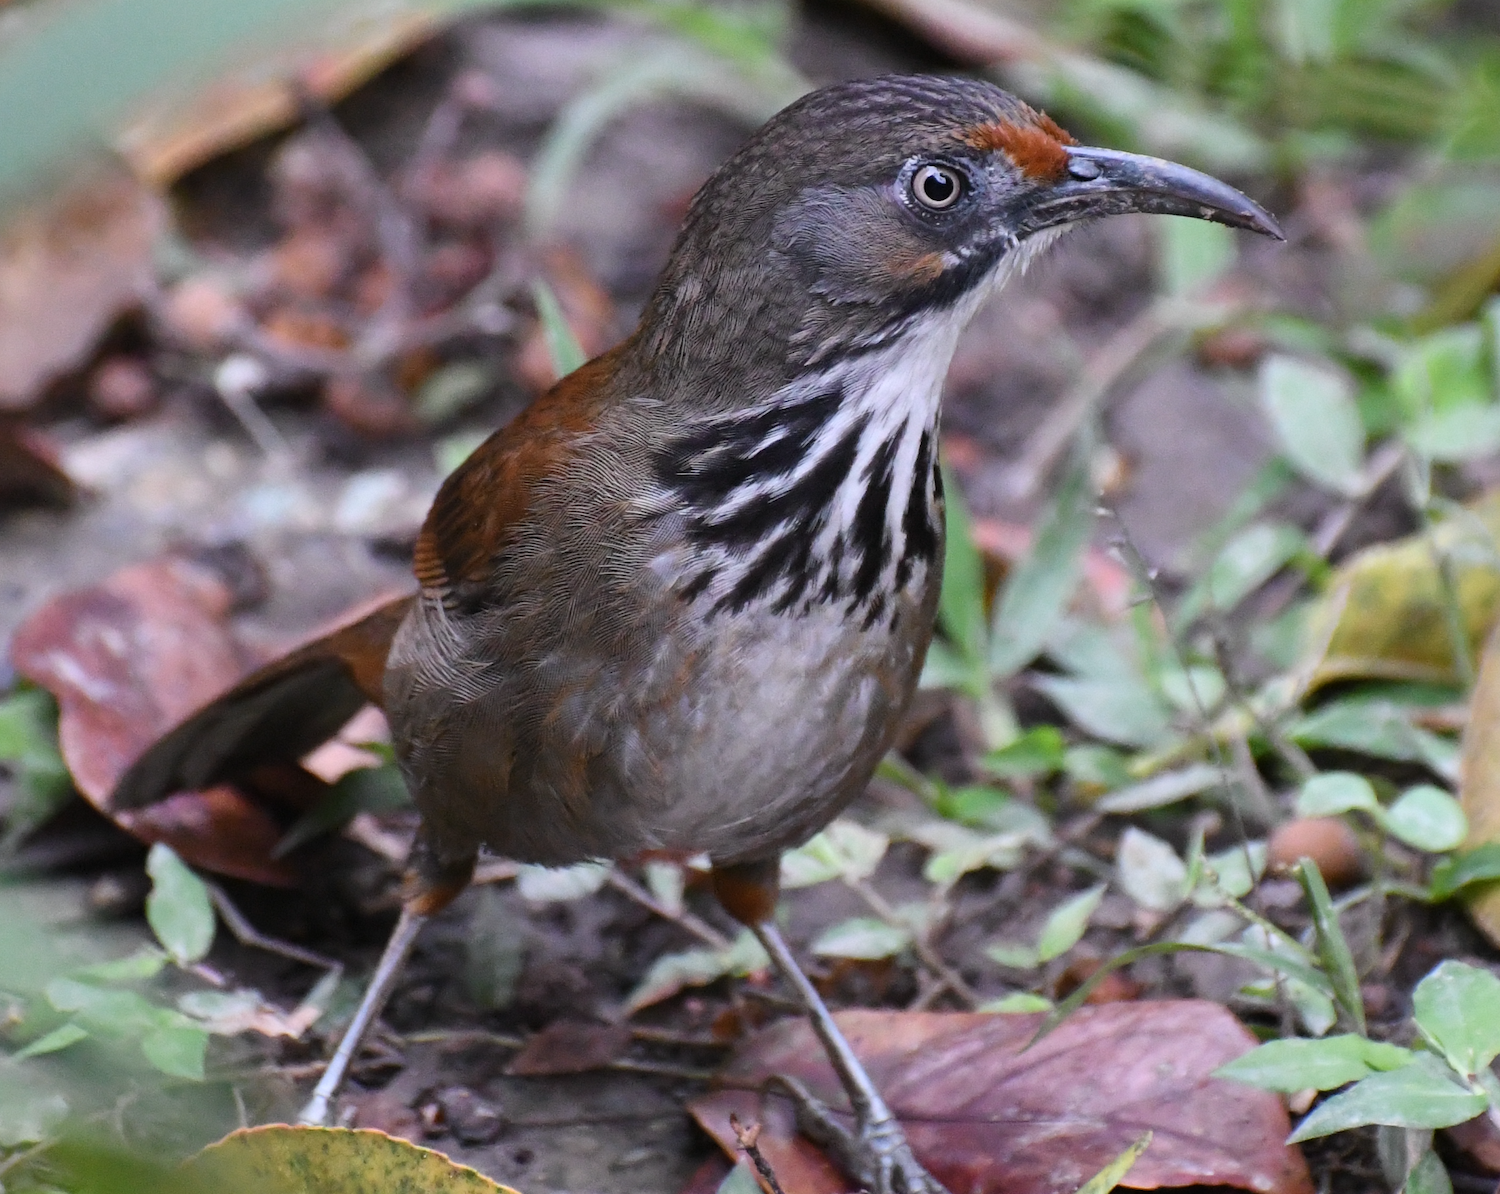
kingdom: Animalia
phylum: Chordata
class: Aves
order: Passeriformes
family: Timaliidae
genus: Pomatorhinus
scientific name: Pomatorhinus erythrocnemis
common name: Spot-breasted scimitar babbler
